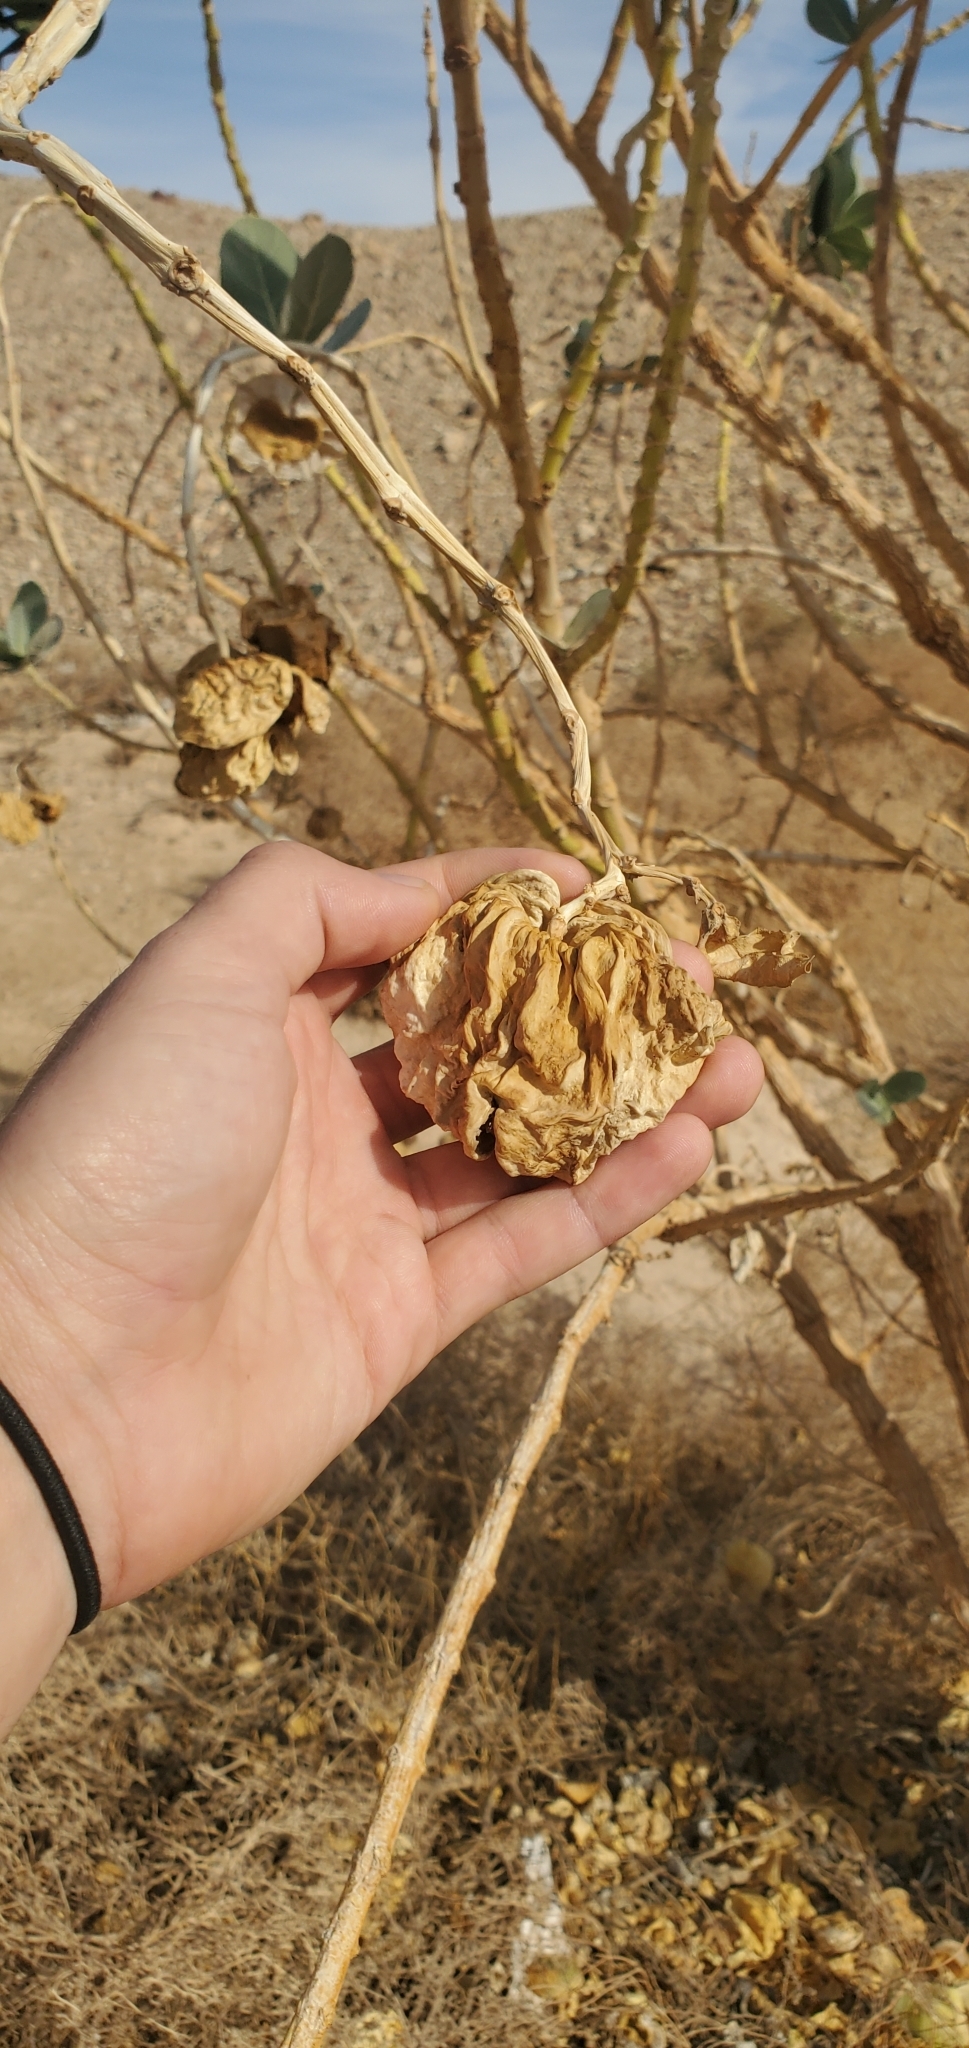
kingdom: Plantae
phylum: Tracheophyta
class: Magnoliopsida
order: Gentianales
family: Apocynaceae
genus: Calotropis
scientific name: Calotropis procera
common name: Roostertree
